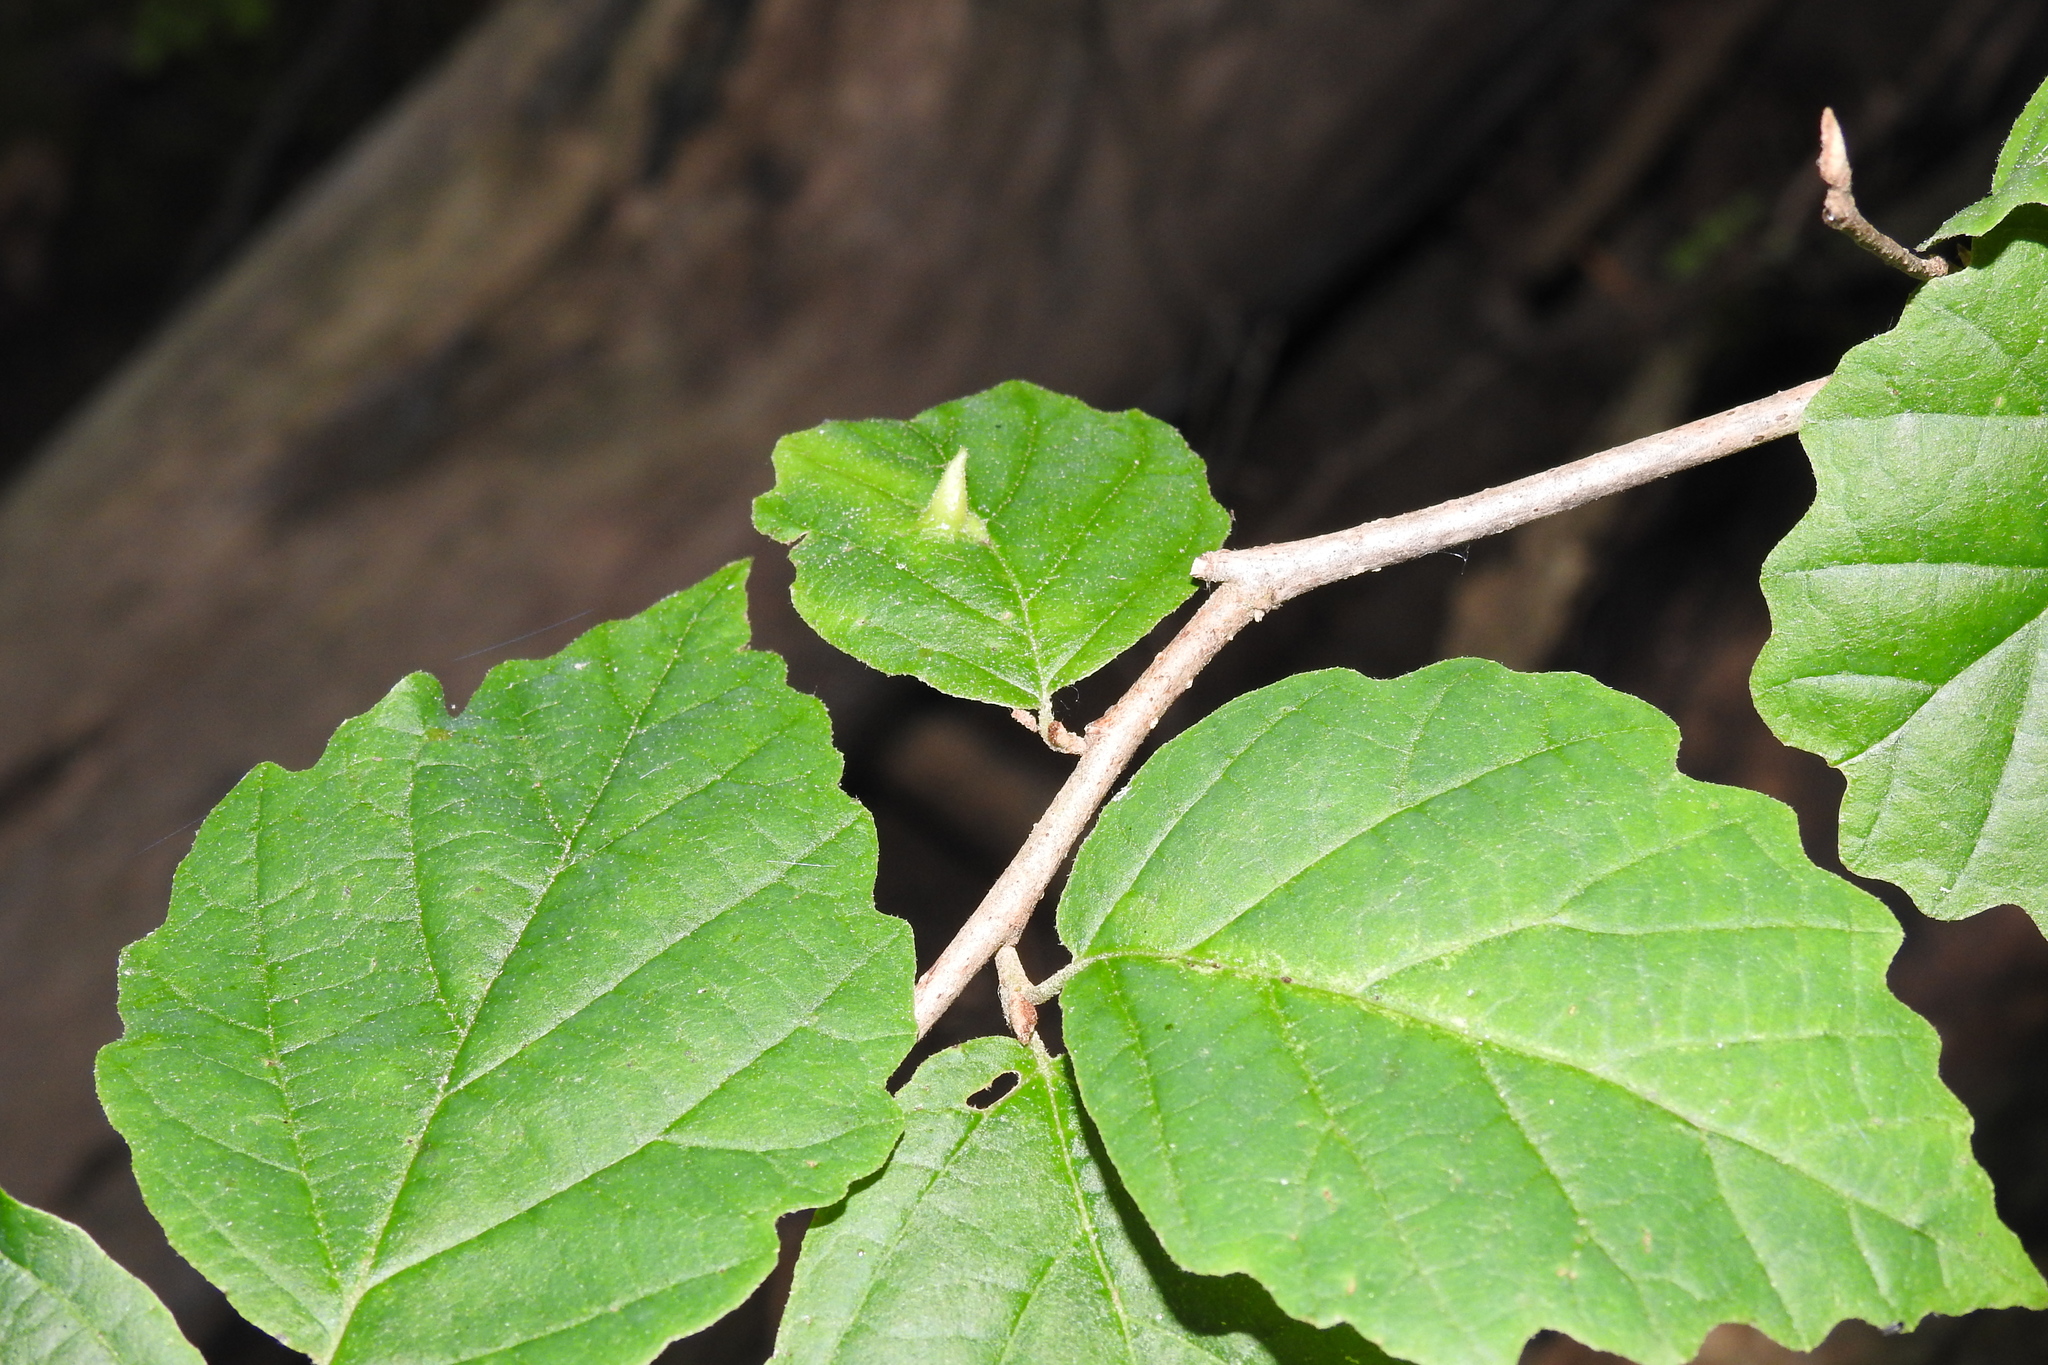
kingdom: Animalia
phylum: Arthropoda
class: Insecta
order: Hemiptera
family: Aphididae
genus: Hormaphis
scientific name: Hormaphis hamamelidis
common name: Witch-hazel cone gall aphid
